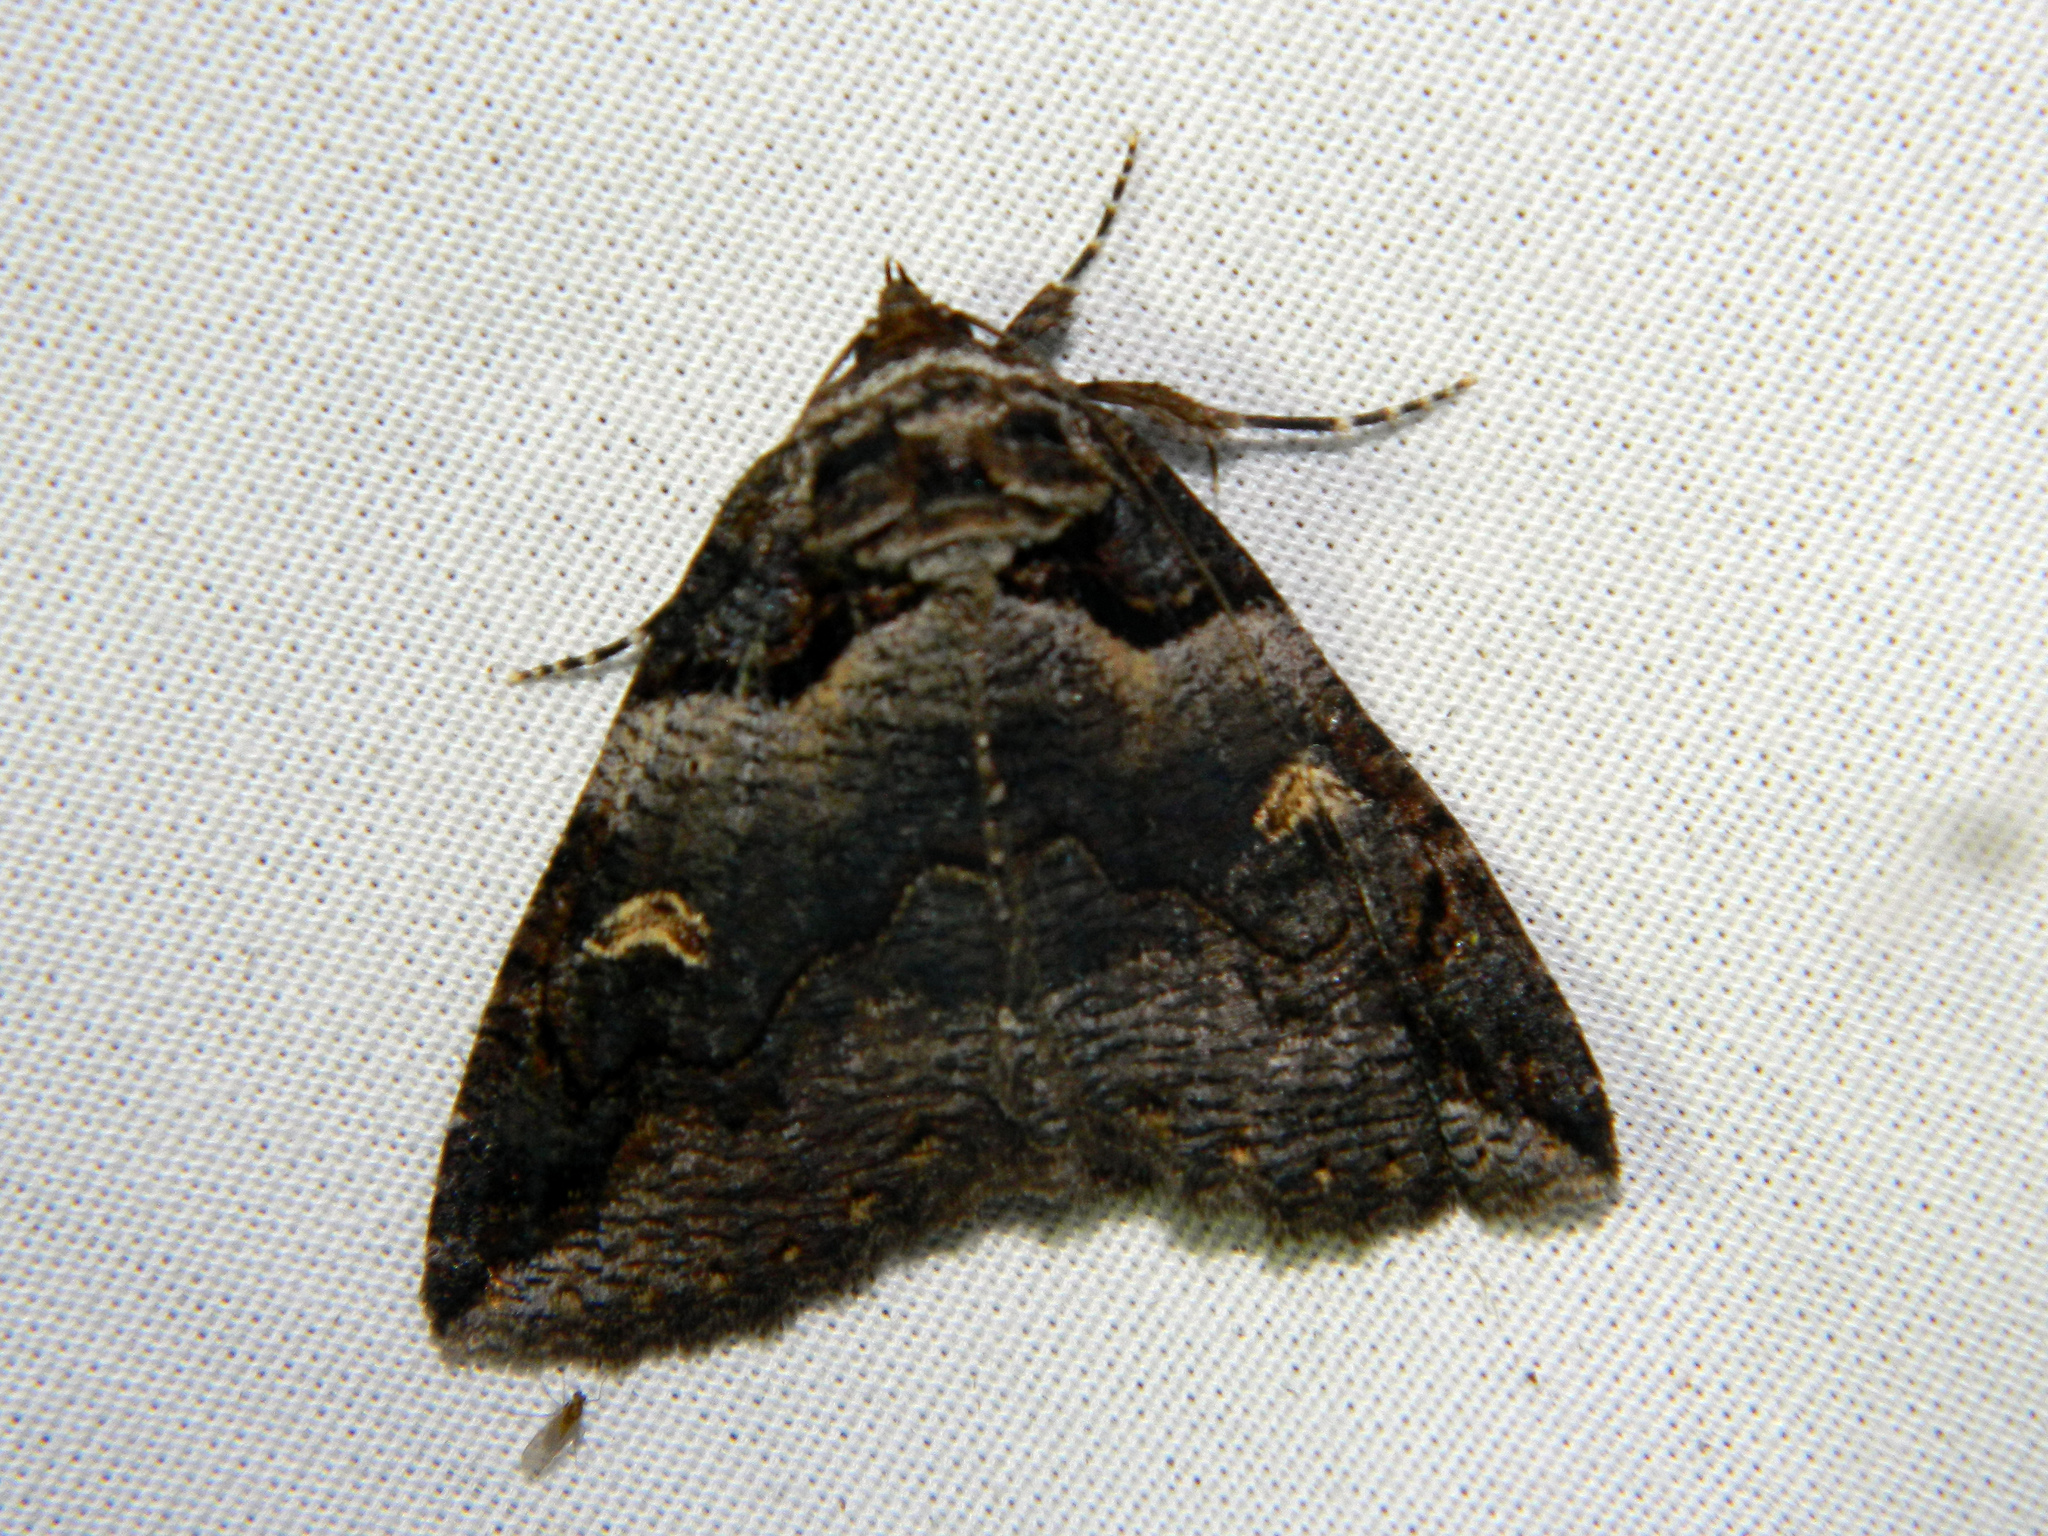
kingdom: Animalia
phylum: Arthropoda
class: Insecta
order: Lepidoptera
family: Erebidae
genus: Zale
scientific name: Zale intenta
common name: Intent zale moth
